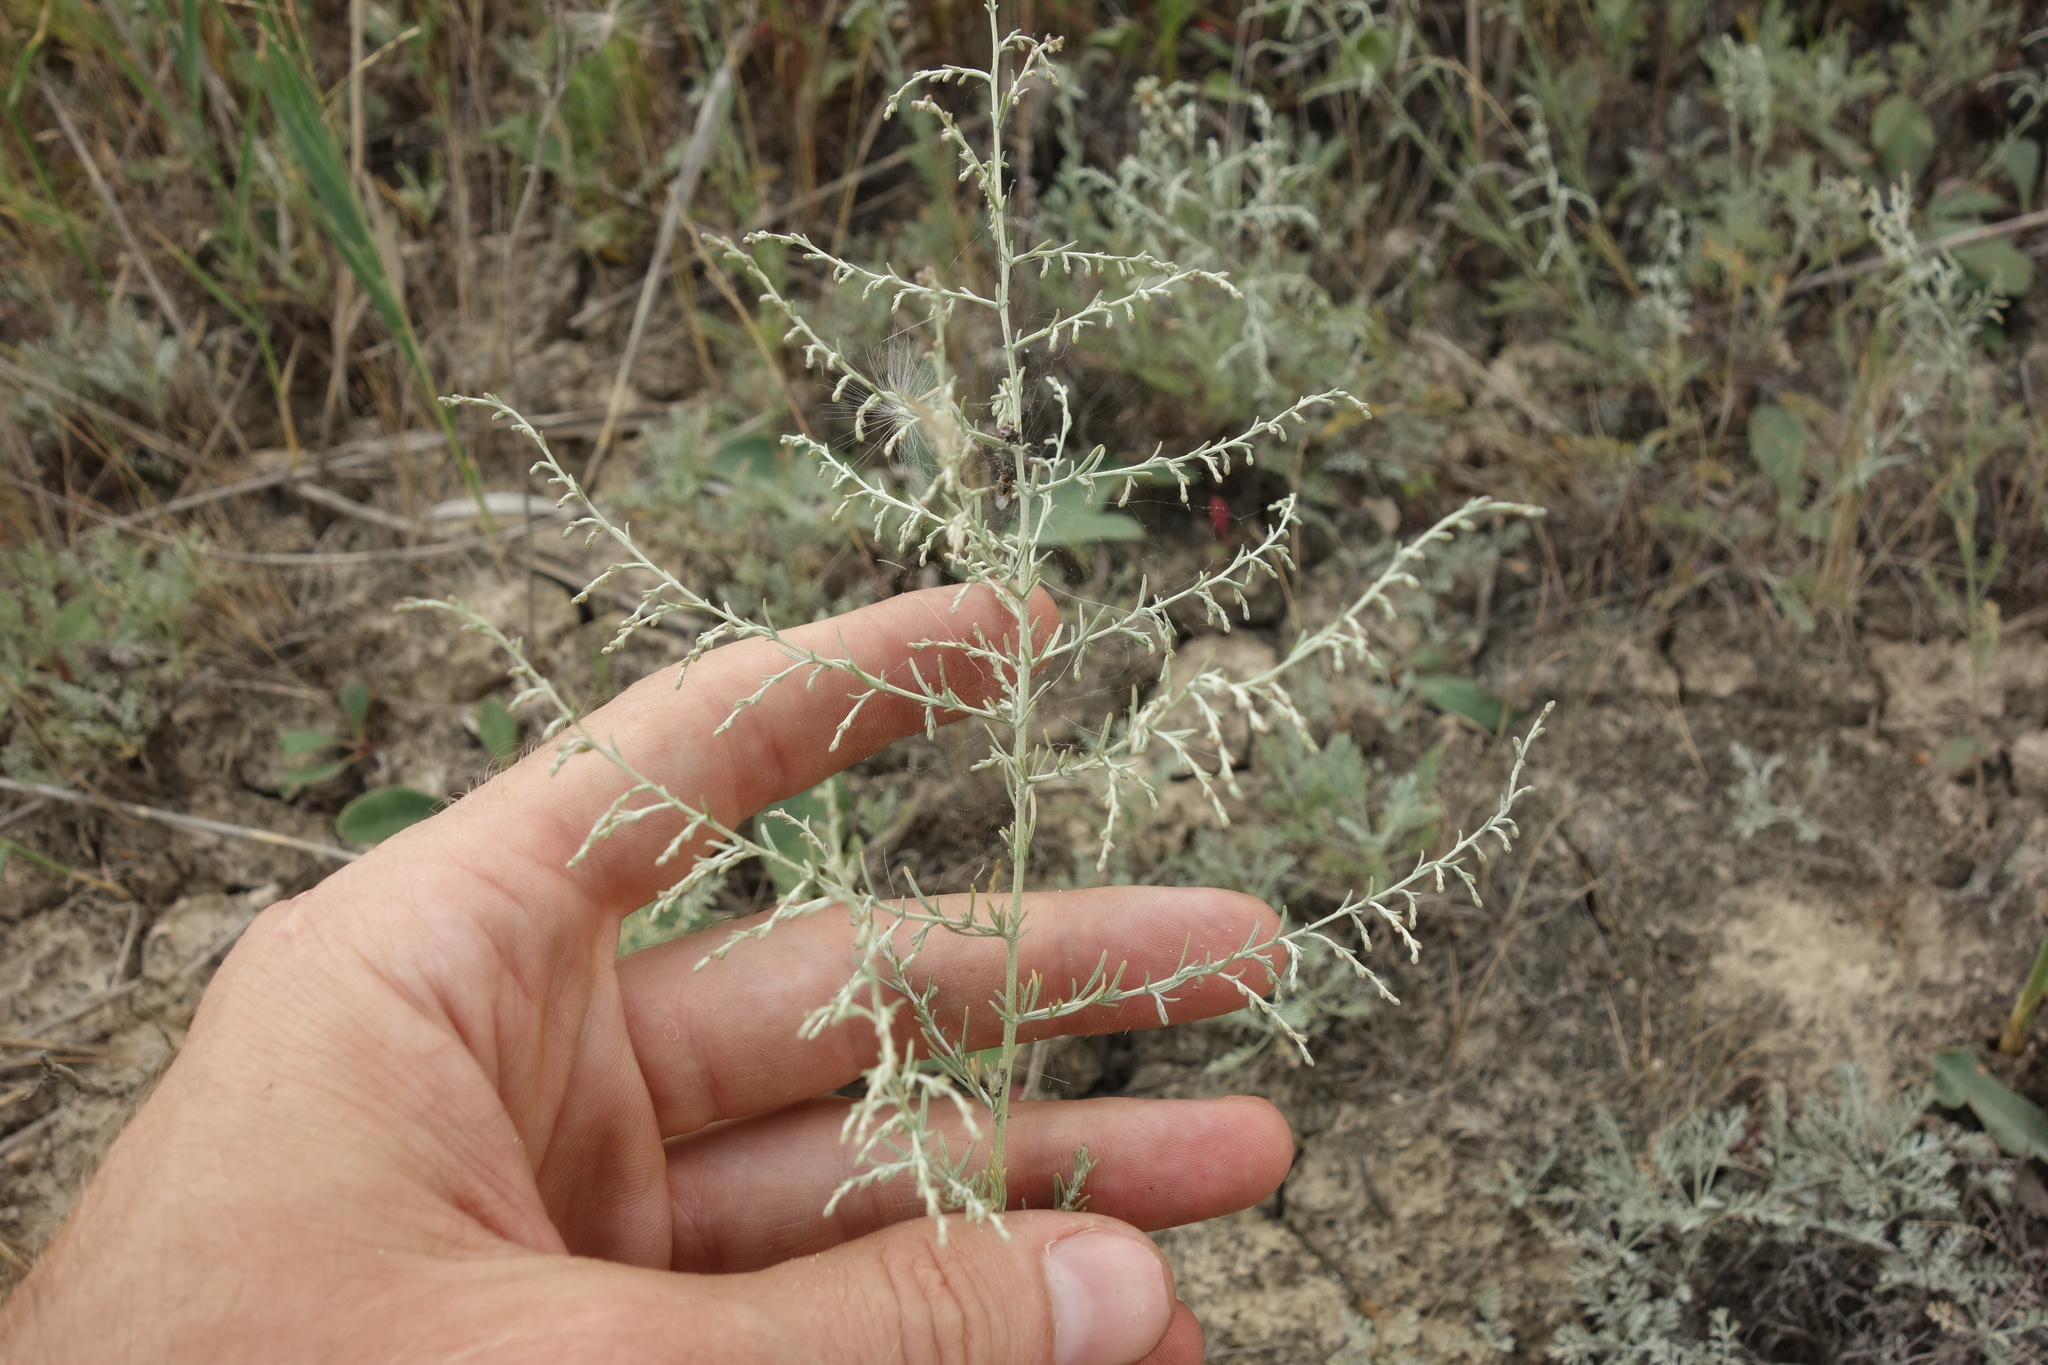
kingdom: Plantae
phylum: Tracheophyta
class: Magnoliopsida
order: Asterales
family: Asteraceae
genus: Artemisia
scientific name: Artemisia santonicum
